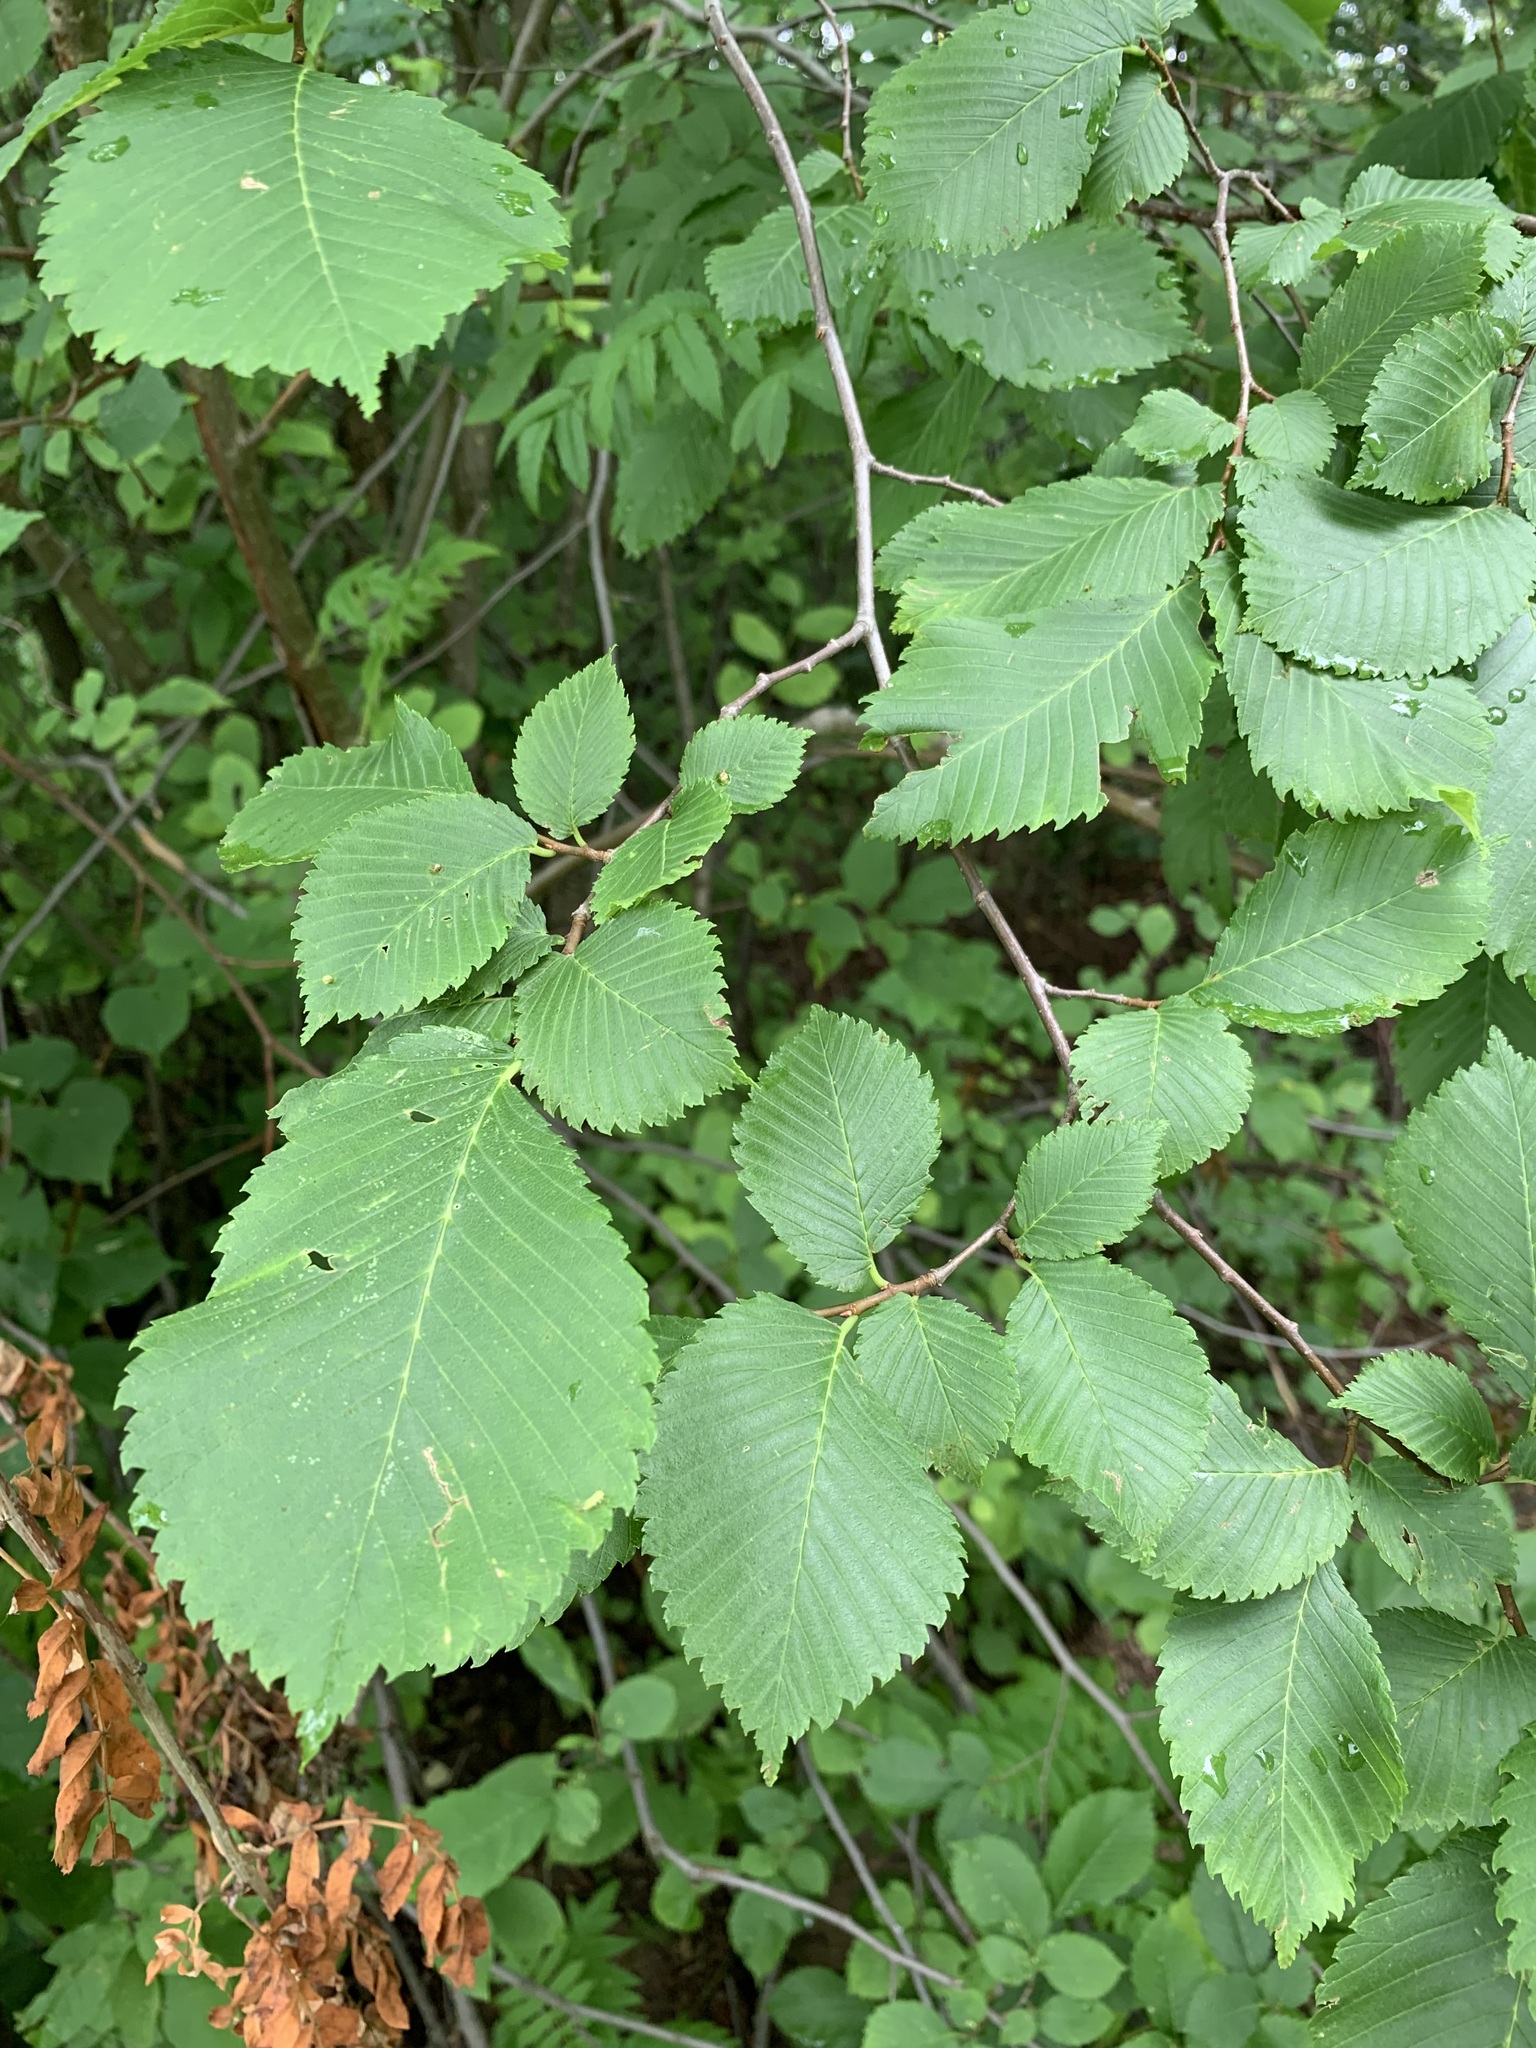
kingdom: Plantae
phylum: Tracheophyta
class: Magnoliopsida
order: Rosales
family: Ulmaceae
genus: Ulmus
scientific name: Ulmus laevis
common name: European white-elm
